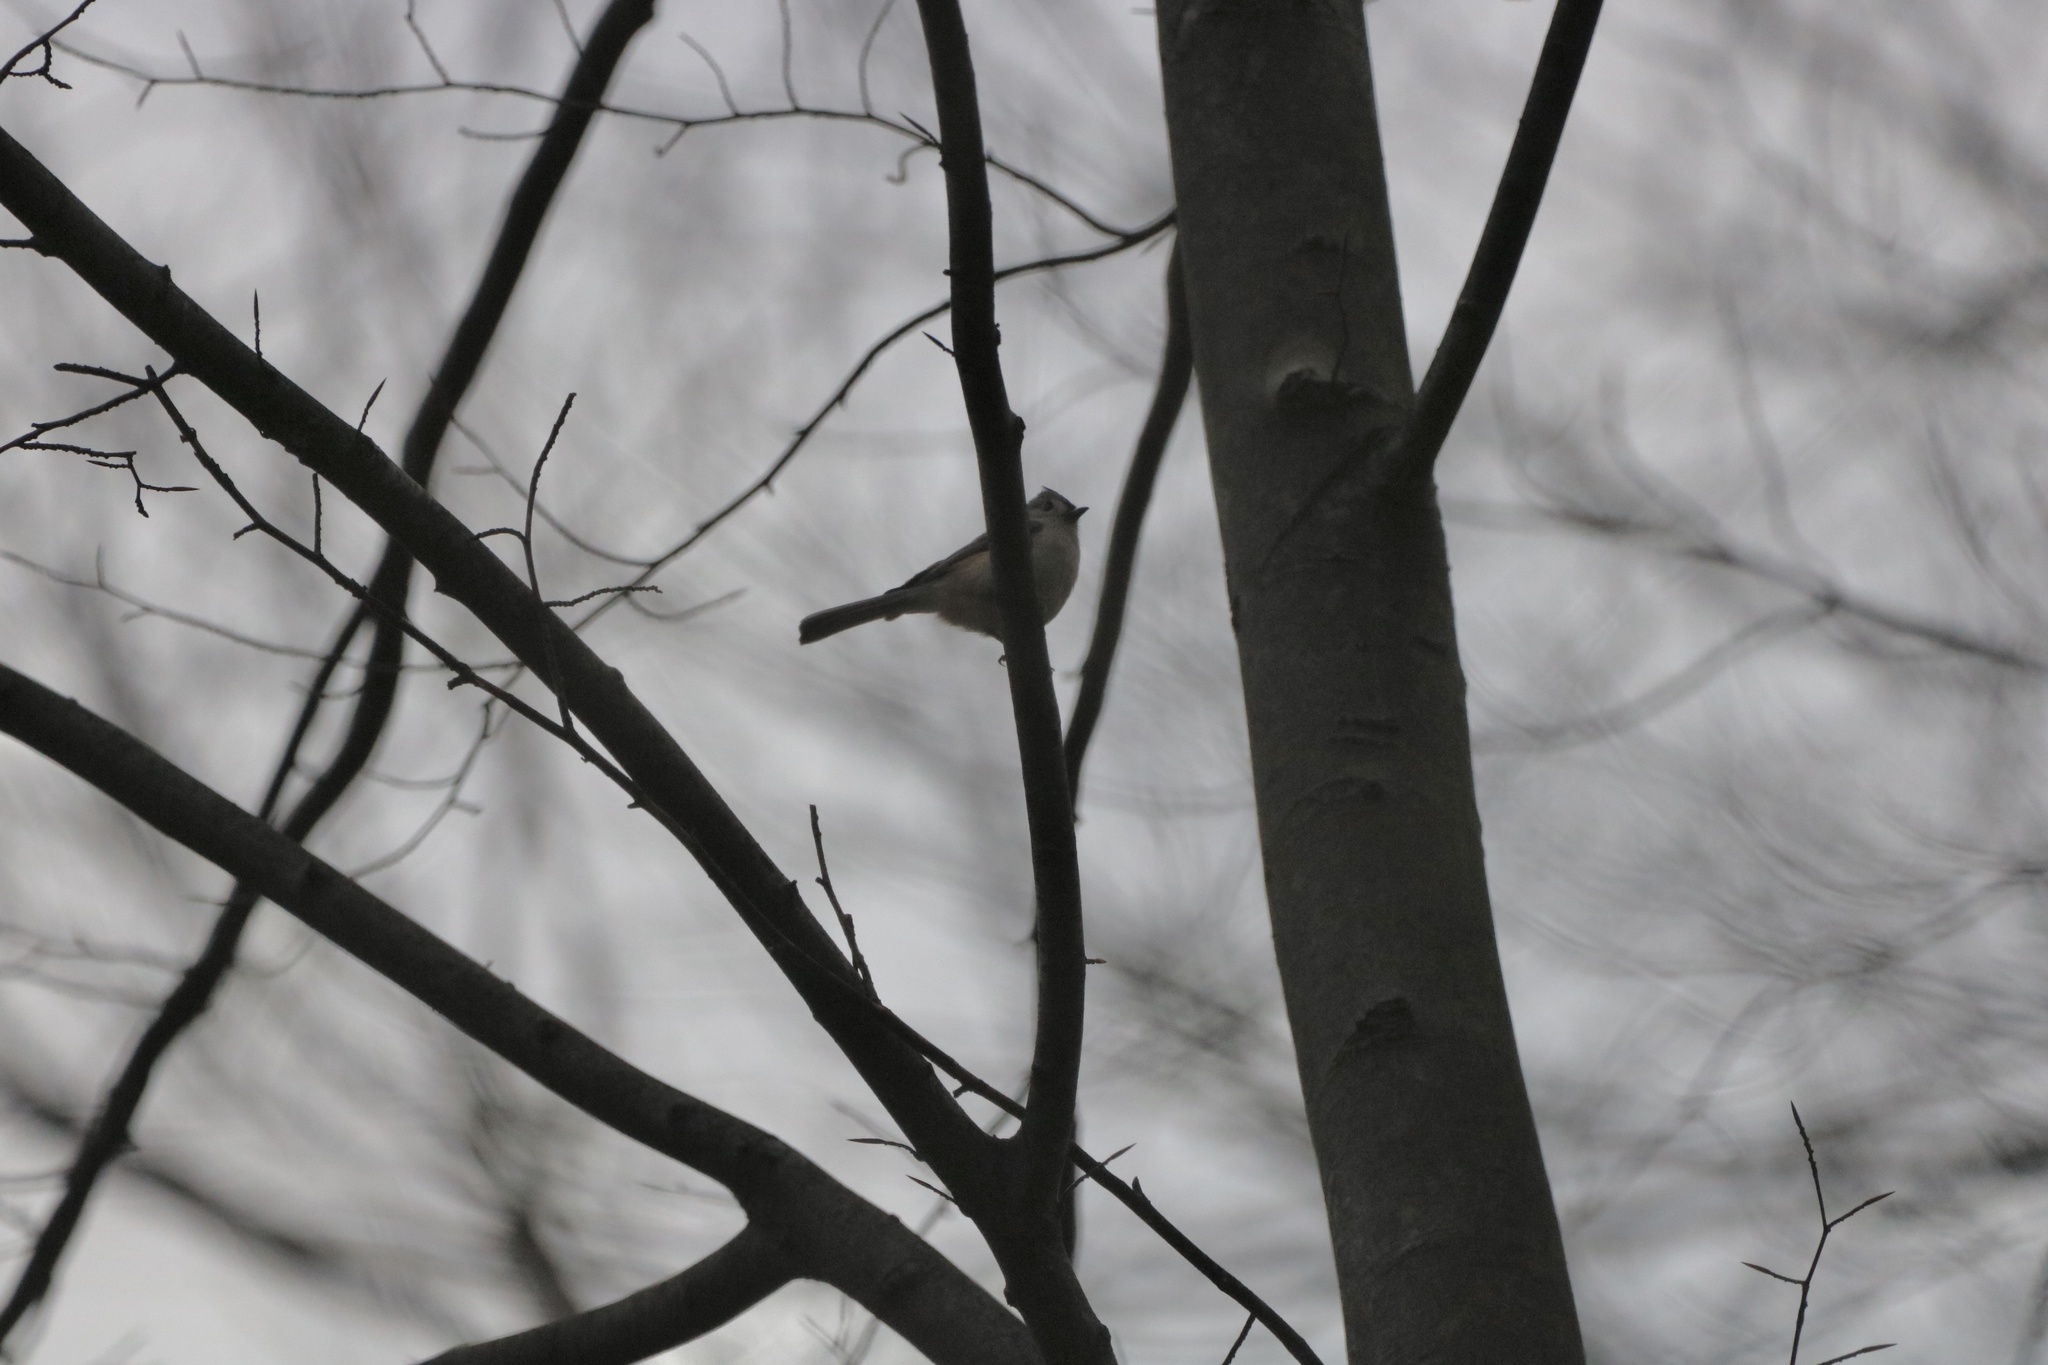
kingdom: Animalia
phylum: Chordata
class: Aves
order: Passeriformes
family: Paridae
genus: Baeolophus
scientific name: Baeolophus bicolor
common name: Tufted titmouse
